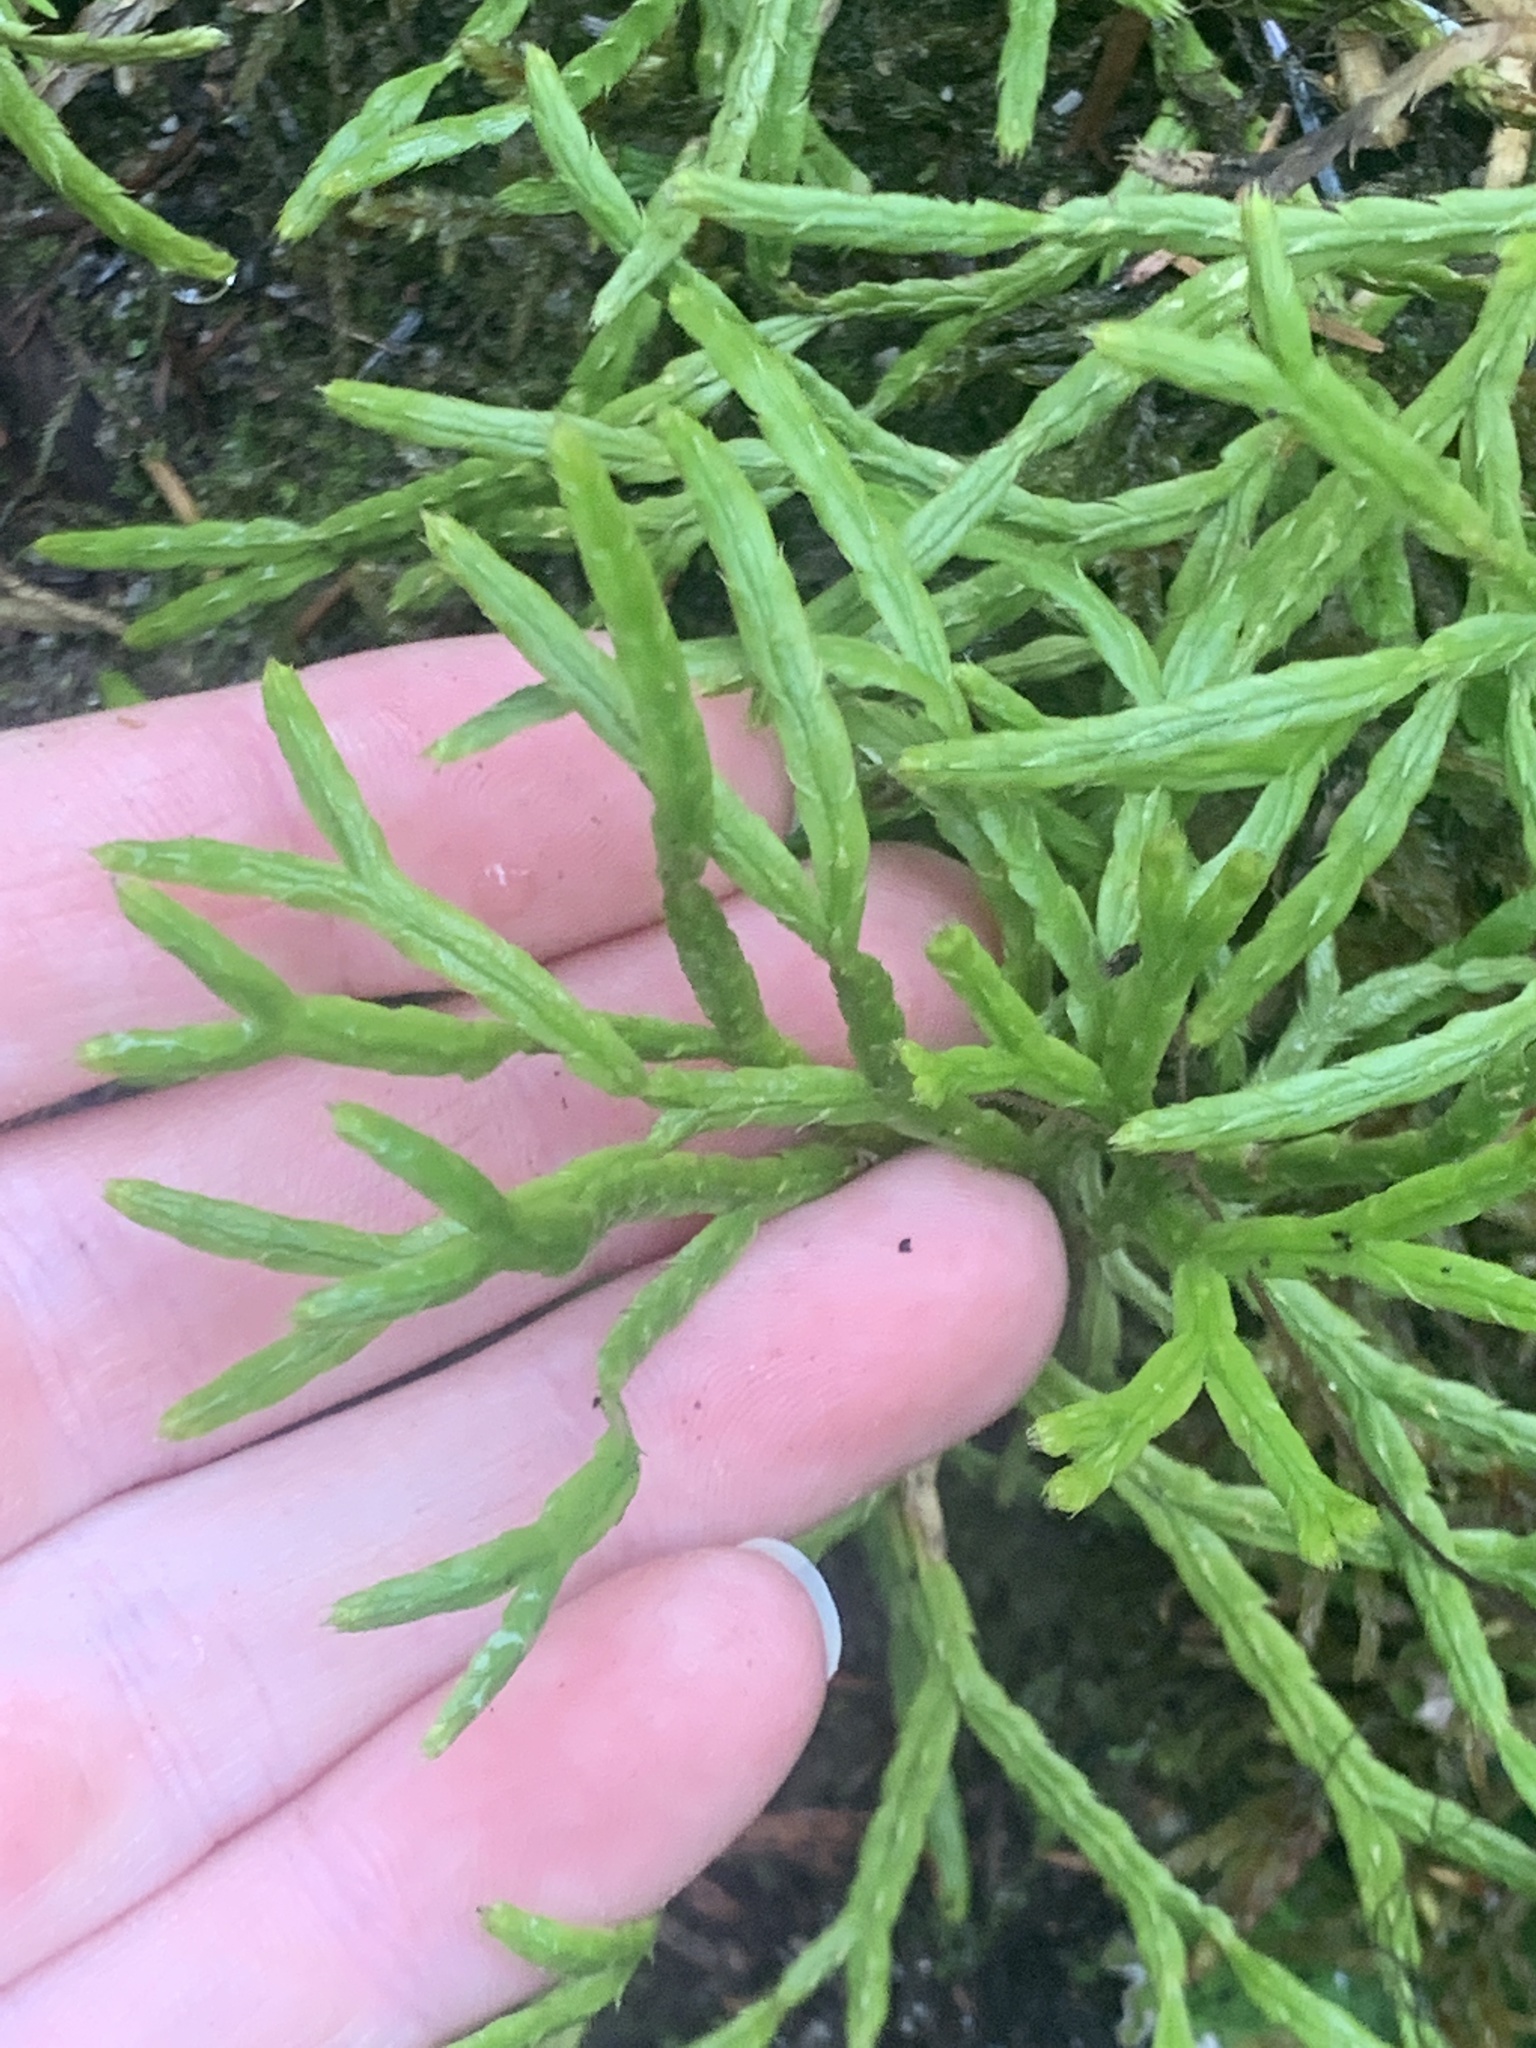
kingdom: Plantae
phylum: Tracheophyta
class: Lycopodiopsida
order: Lycopodiales
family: Lycopodiaceae
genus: Diphasiastrum
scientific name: Diphasiastrum complanatum
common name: Northern running-pine
